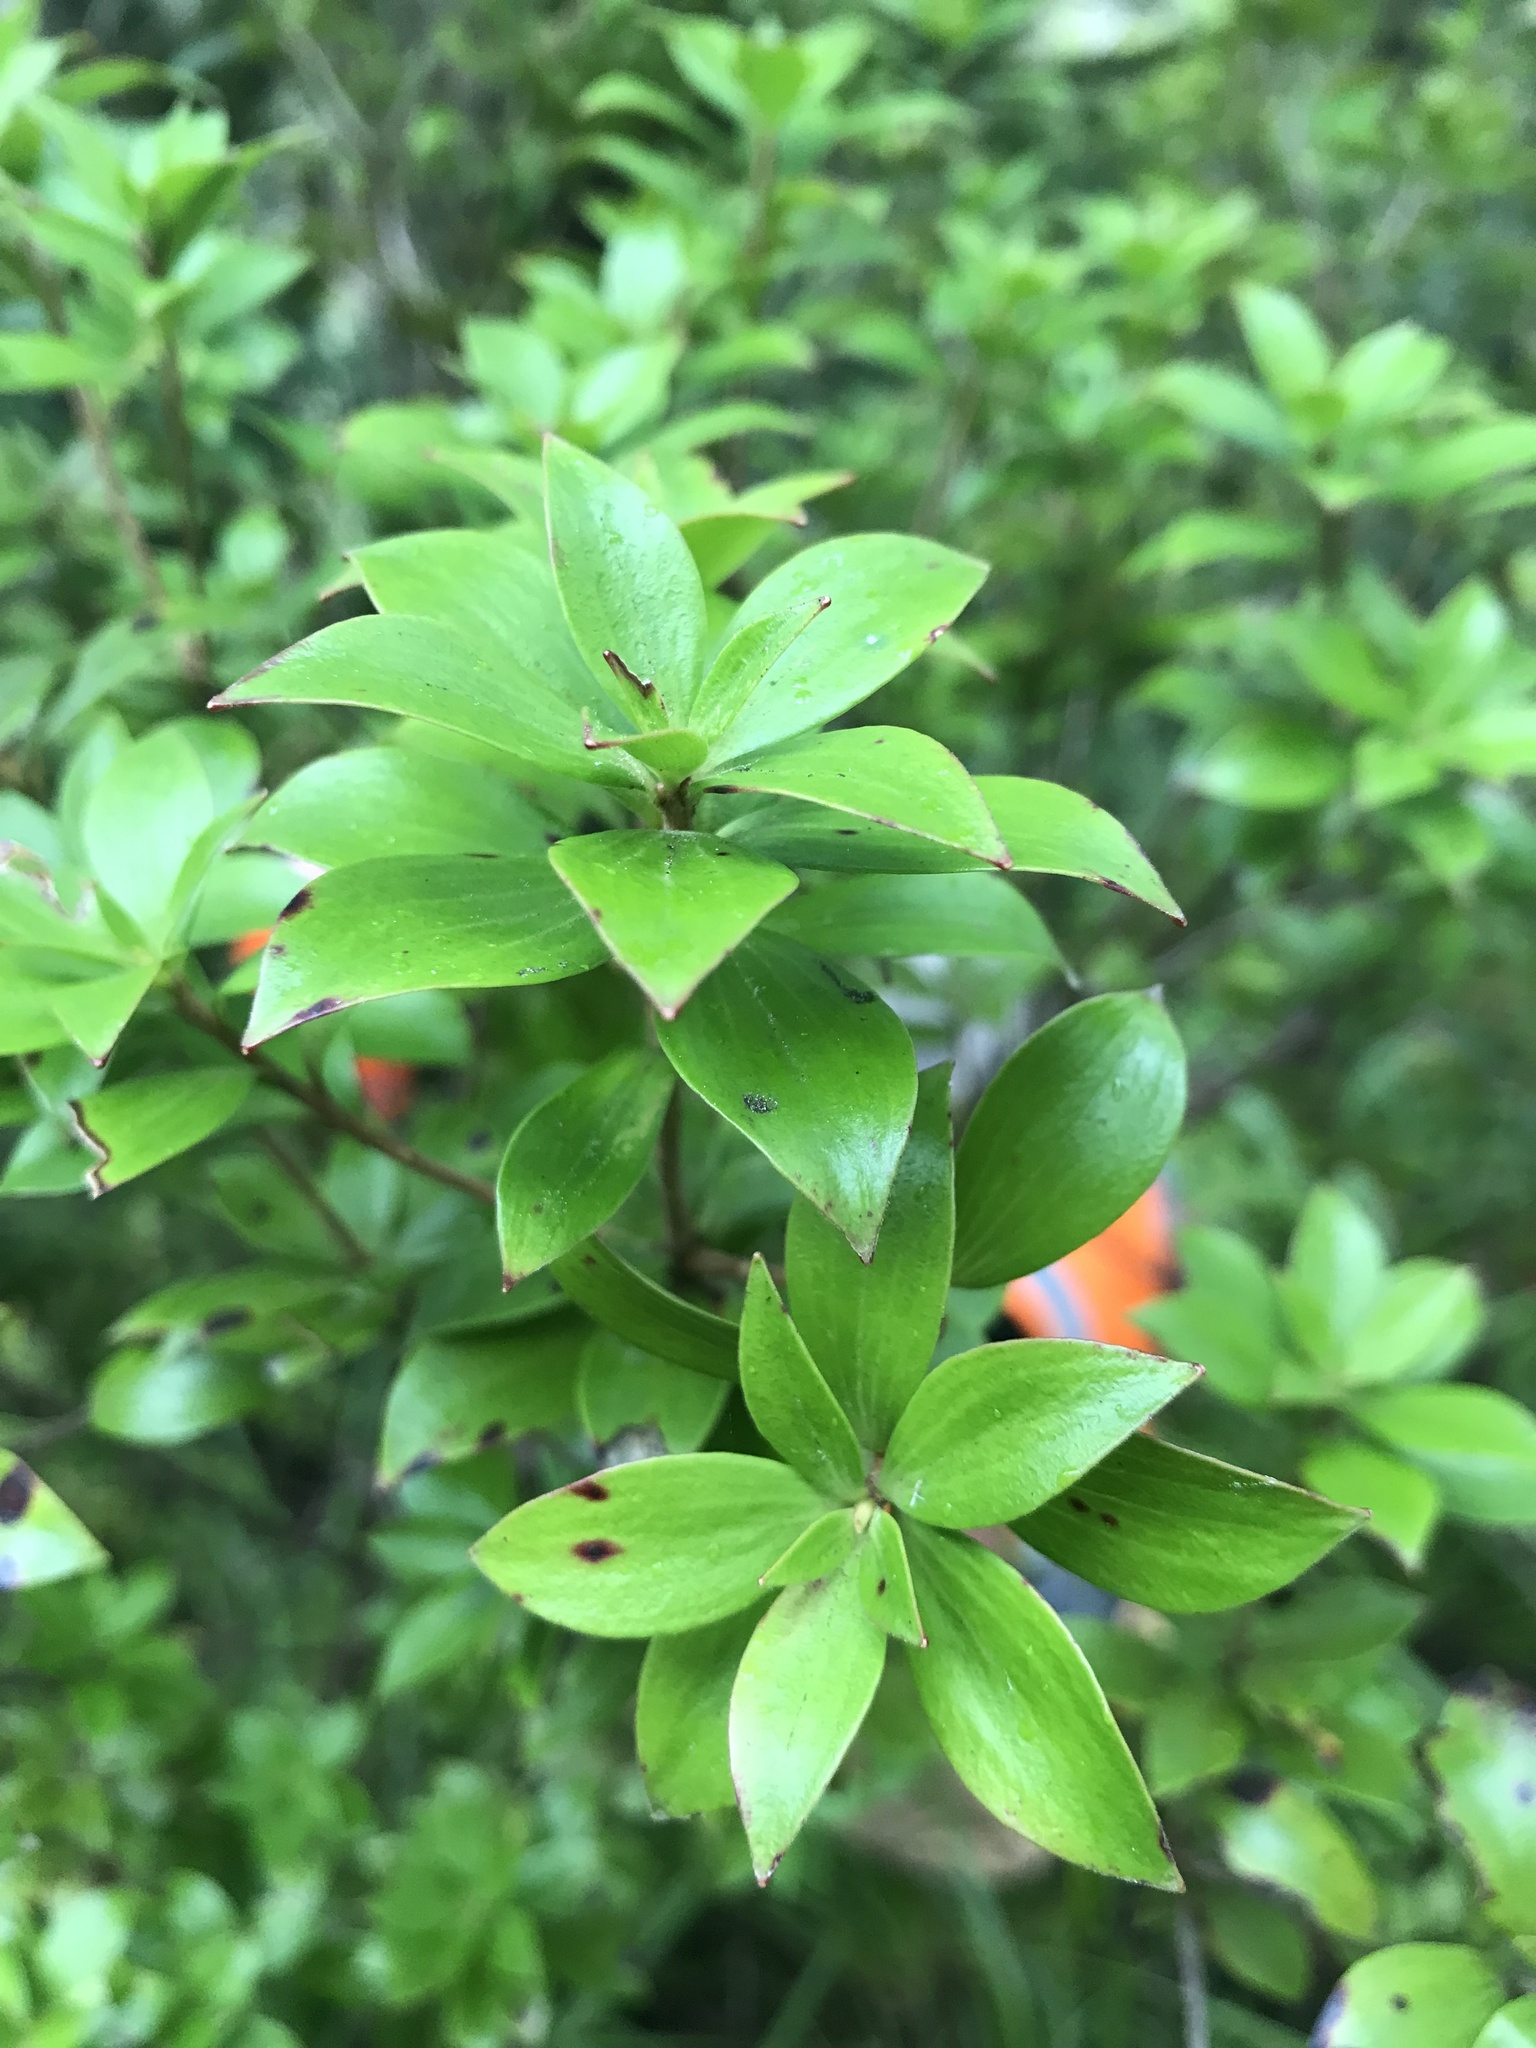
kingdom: Plantae
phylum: Tracheophyta
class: Magnoliopsida
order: Ericales
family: Ericaceae
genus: Archeria
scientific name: Archeria racemosa
